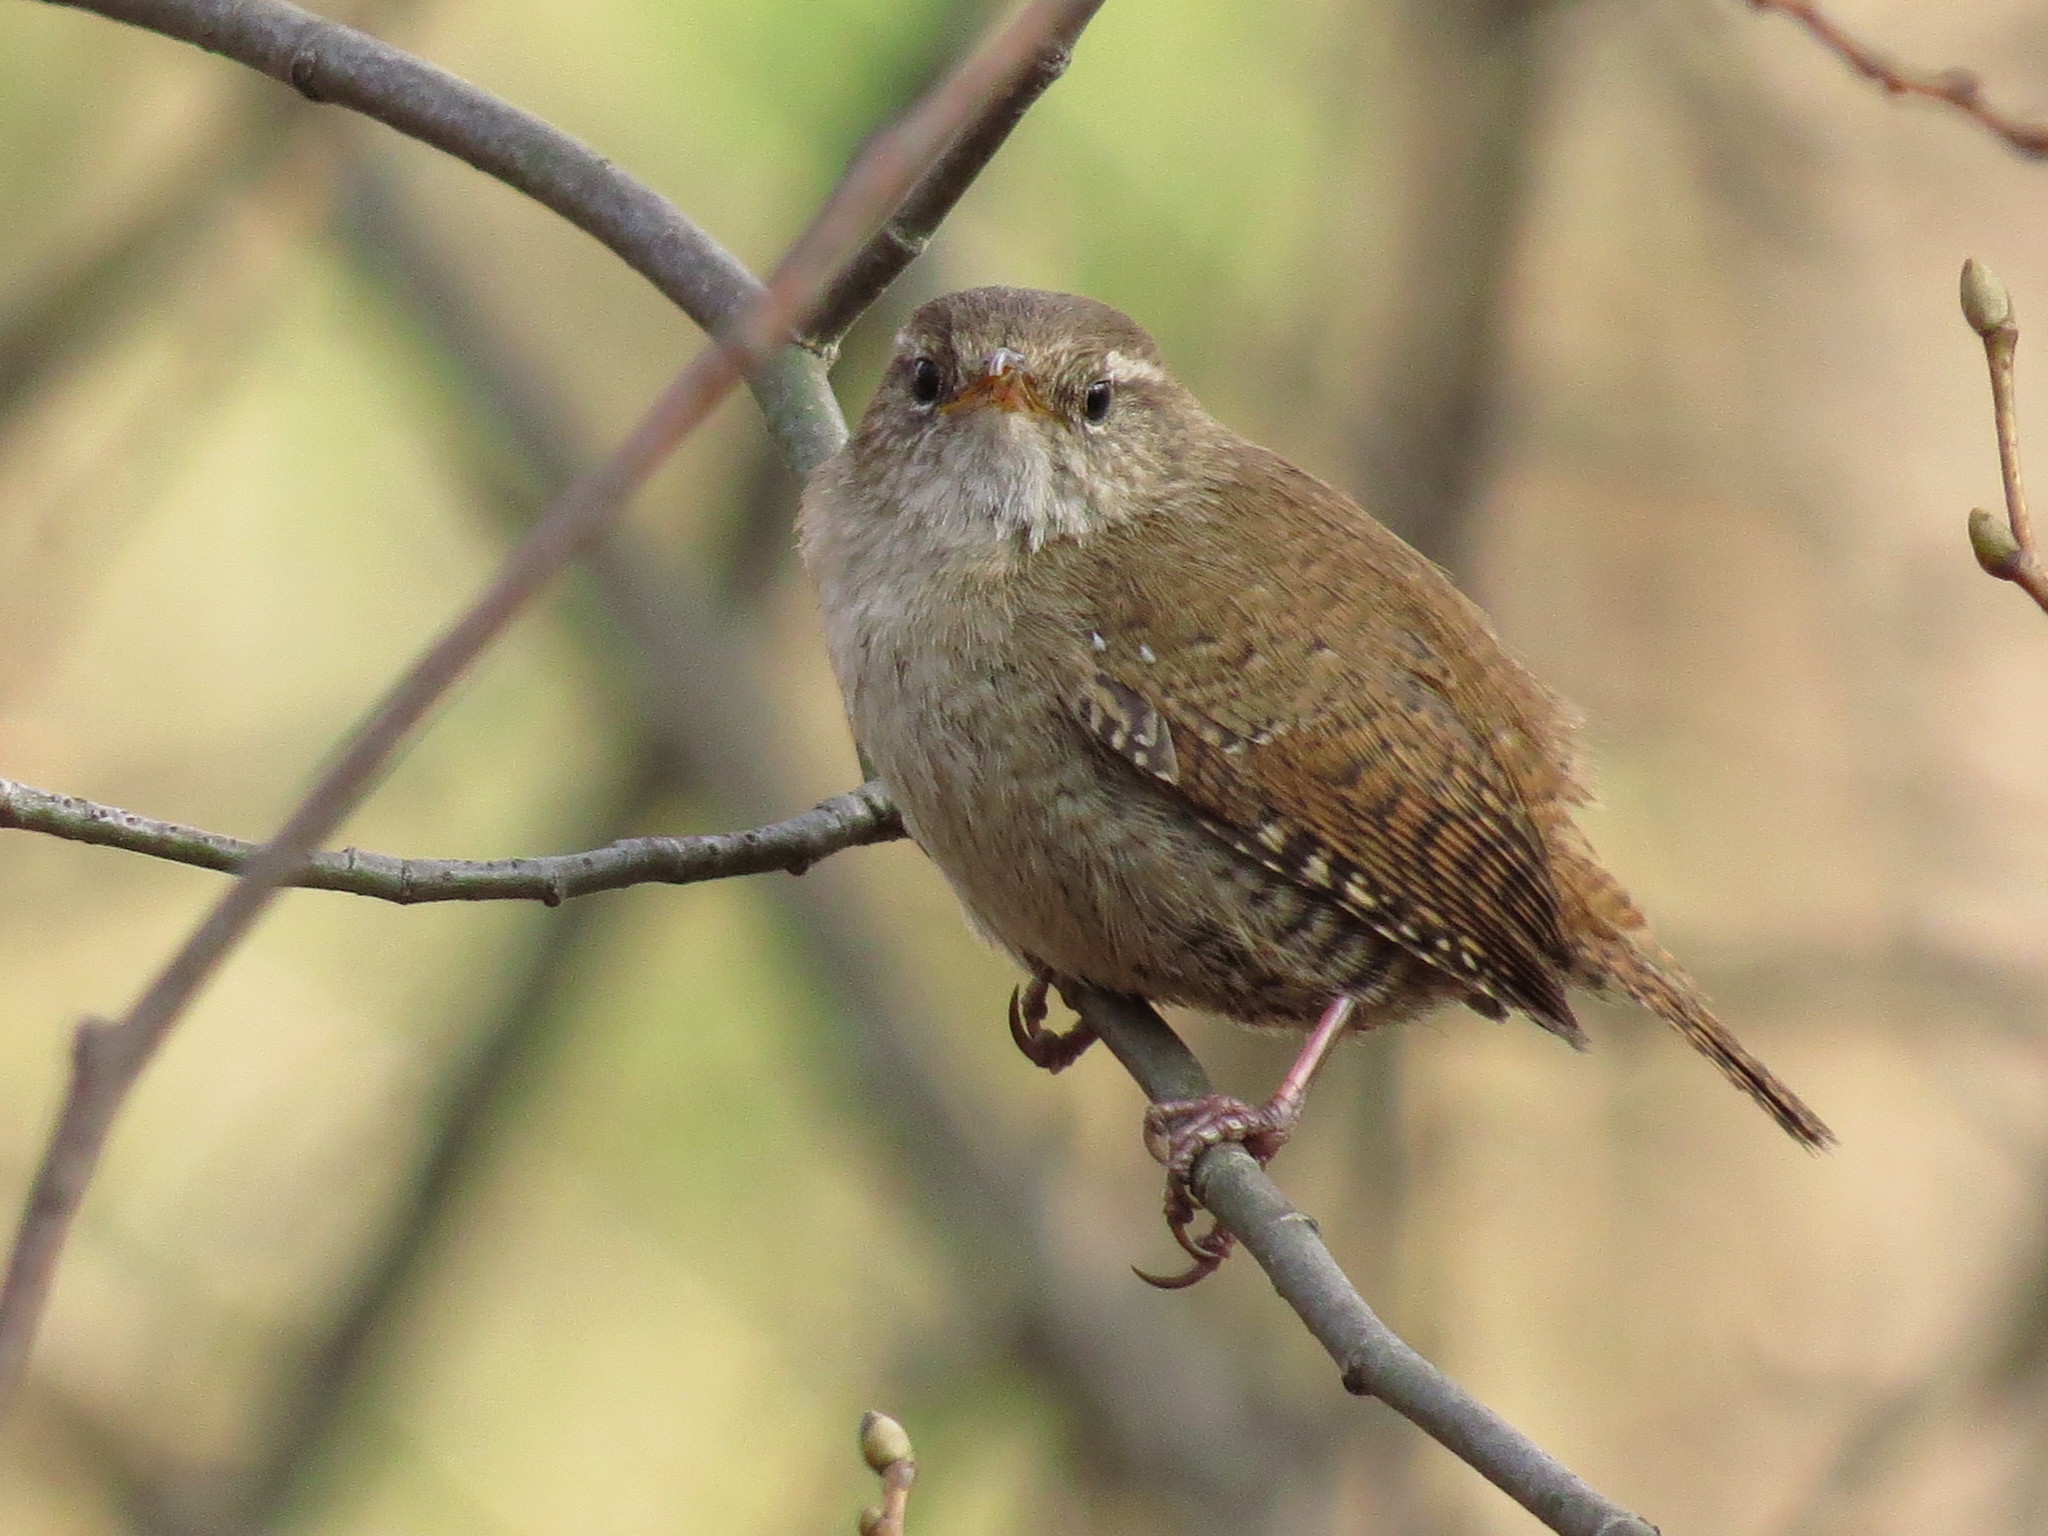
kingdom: Animalia
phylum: Chordata
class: Aves
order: Passeriformes
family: Troglodytidae
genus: Troglodytes
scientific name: Troglodytes troglodytes
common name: Eurasian wren
